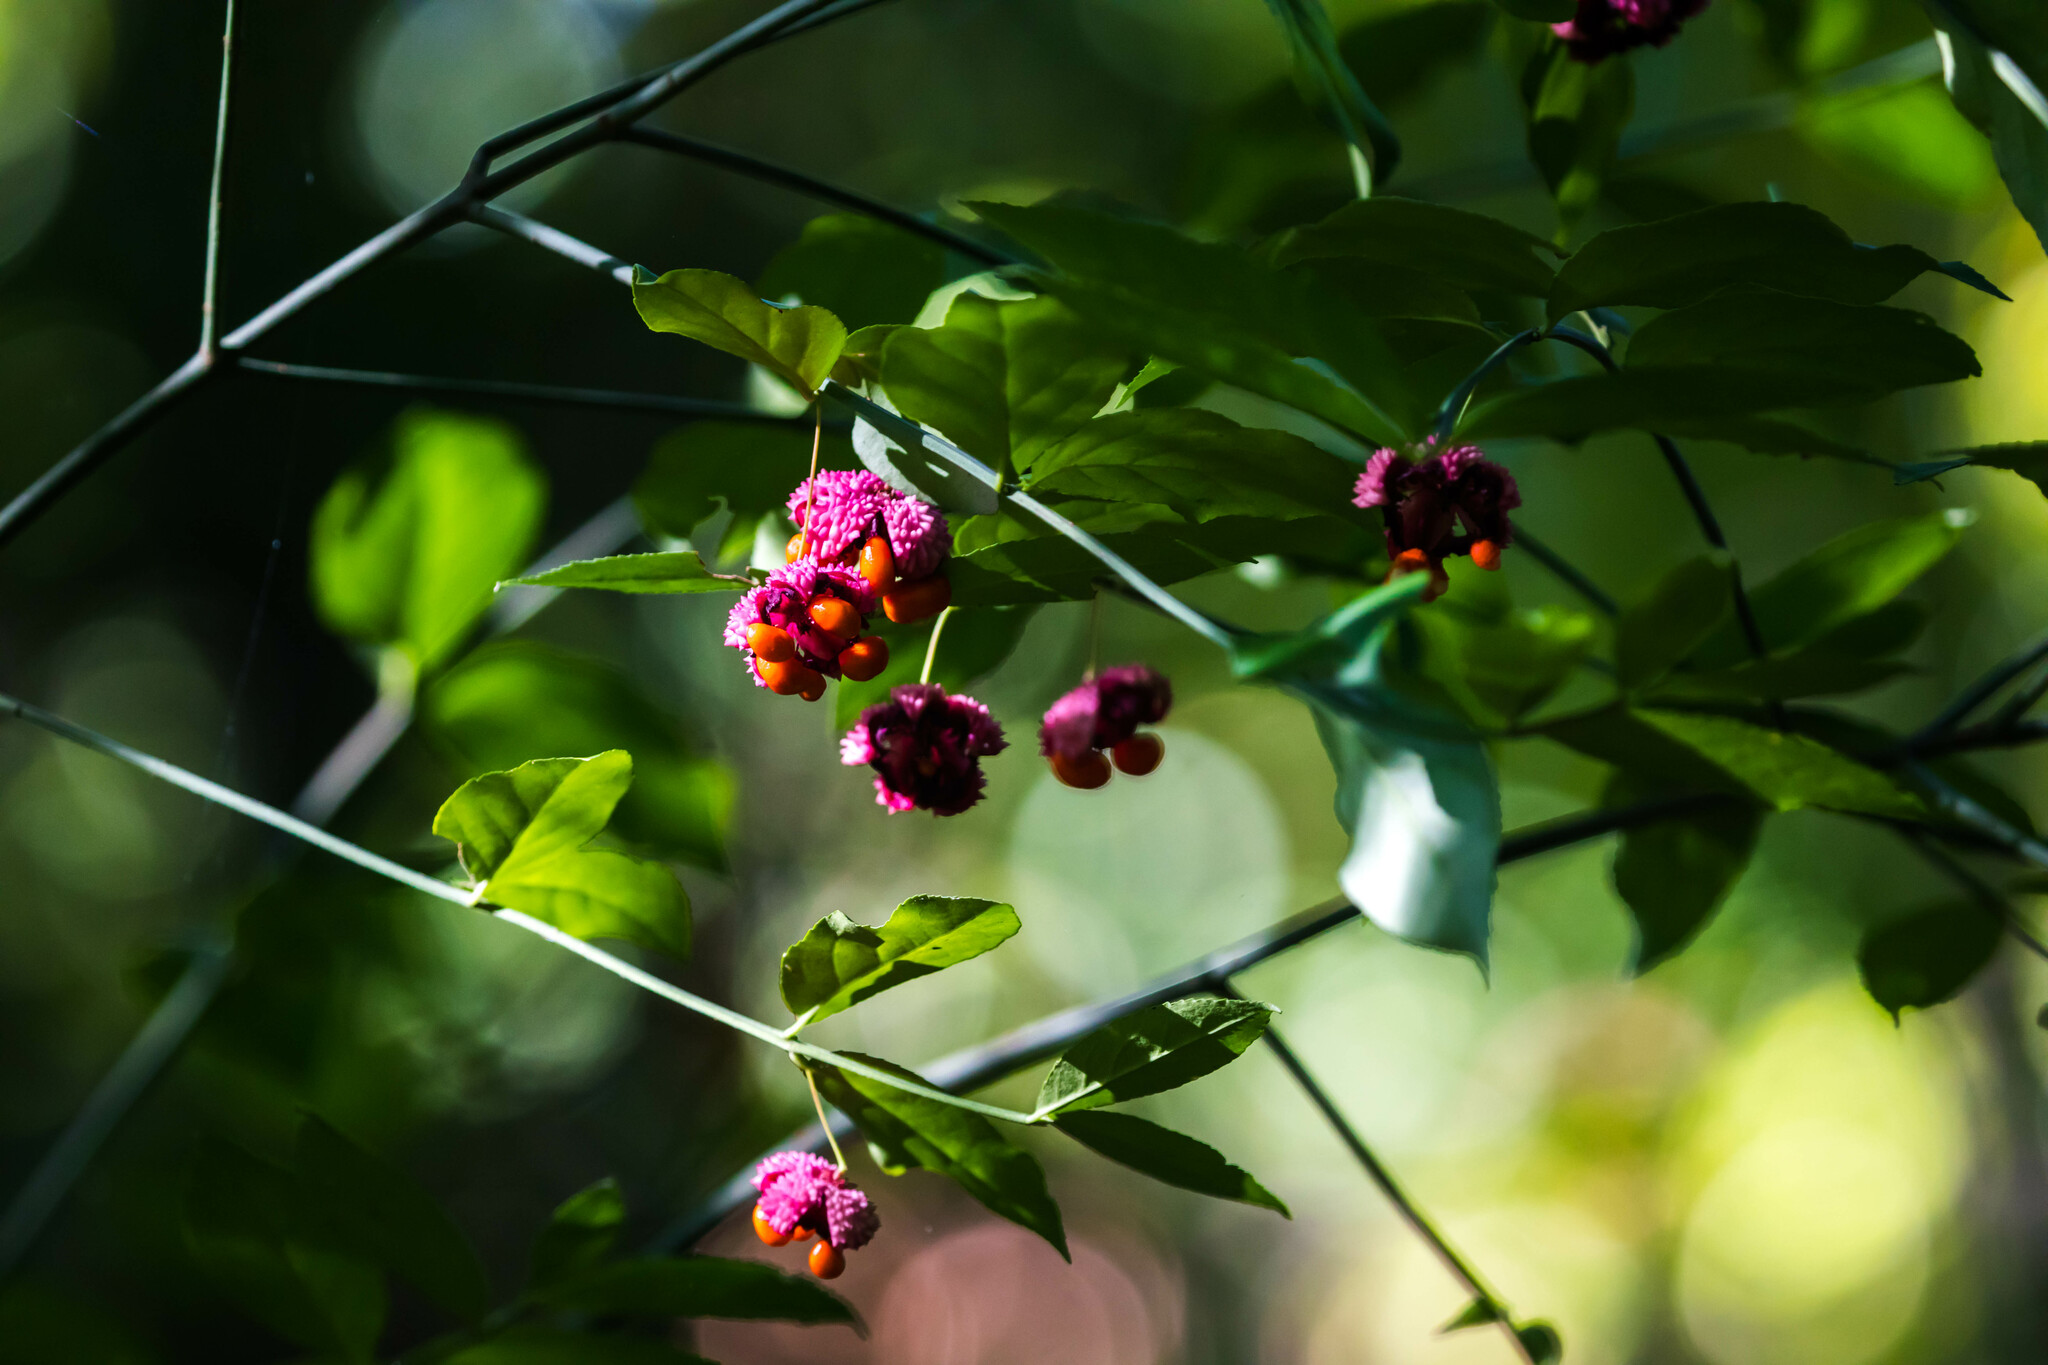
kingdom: Plantae
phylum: Tracheophyta
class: Magnoliopsida
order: Celastrales
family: Celastraceae
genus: Euonymus
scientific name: Euonymus americanus
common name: Bursting-heart
